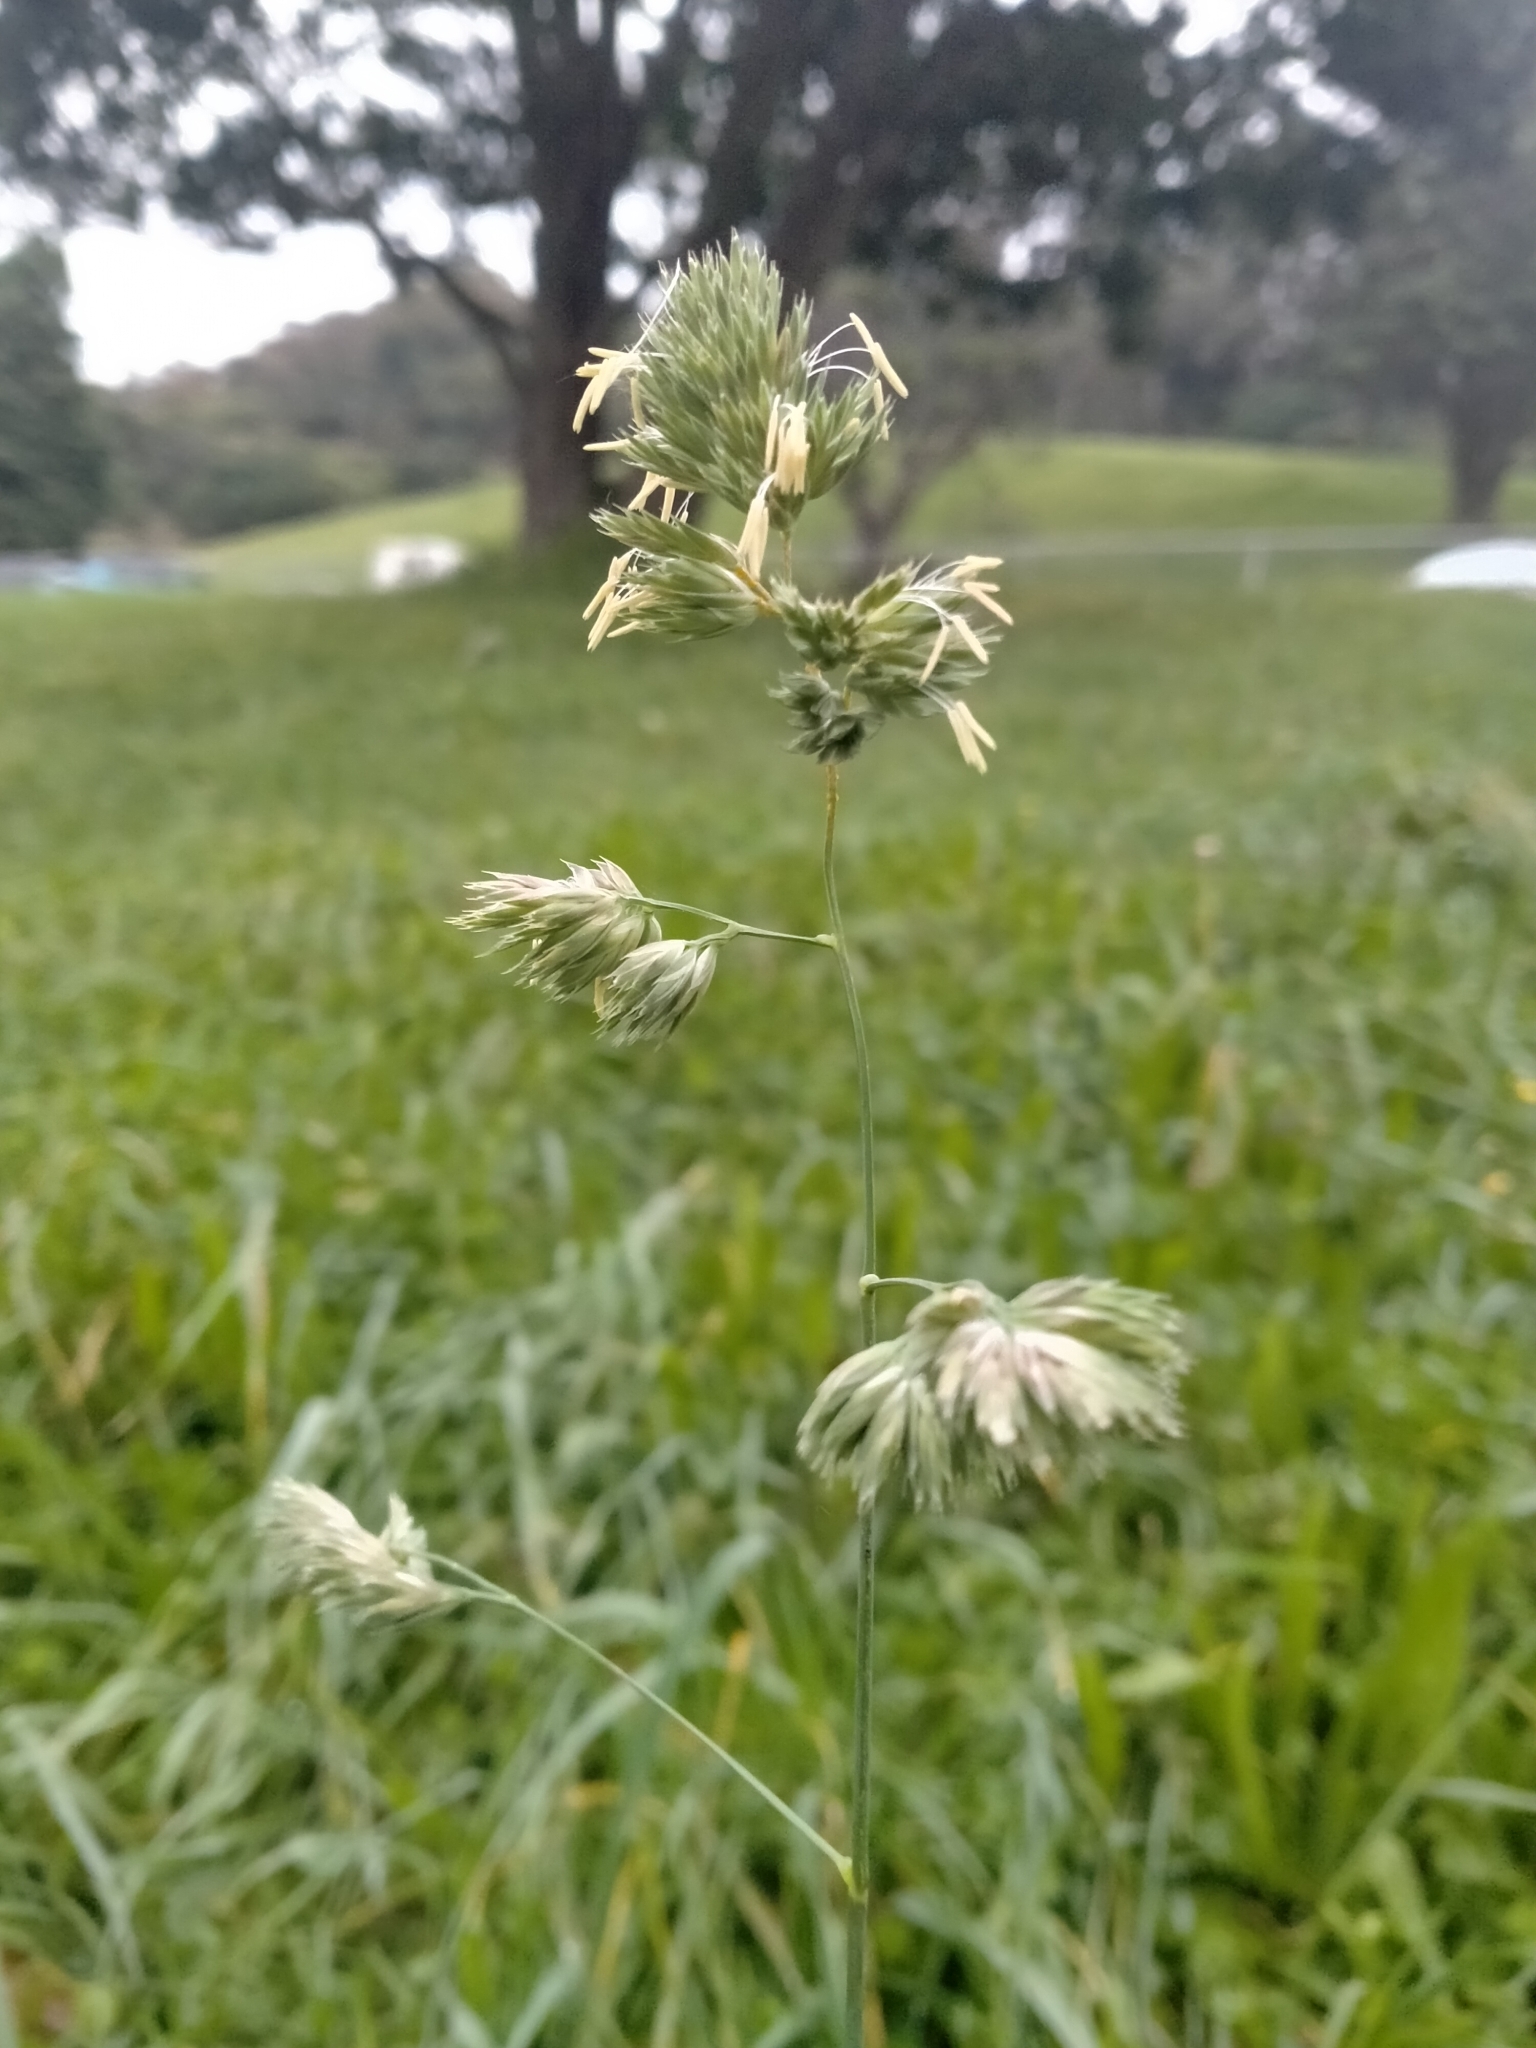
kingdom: Plantae
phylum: Tracheophyta
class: Liliopsida
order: Poales
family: Poaceae
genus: Dactylis
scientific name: Dactylis glomerata
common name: Orchardgrass
